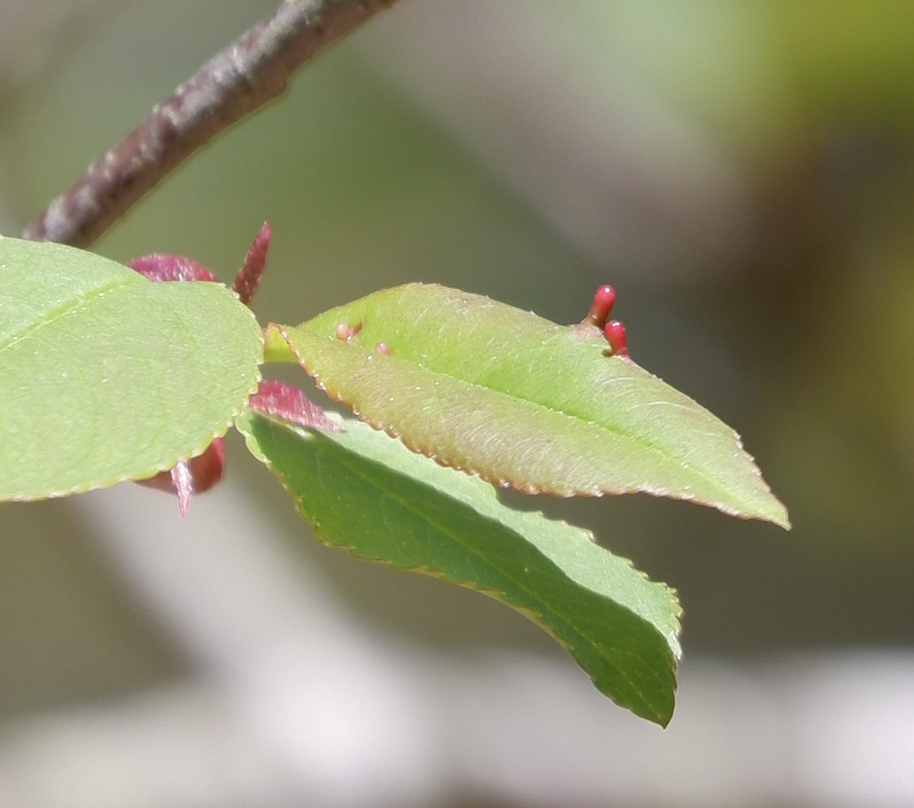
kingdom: Animalia
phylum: Arthropoda
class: Arachnida
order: Trombidiformes
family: Eriophyidae
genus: Eriophyes
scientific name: Eriophyes
